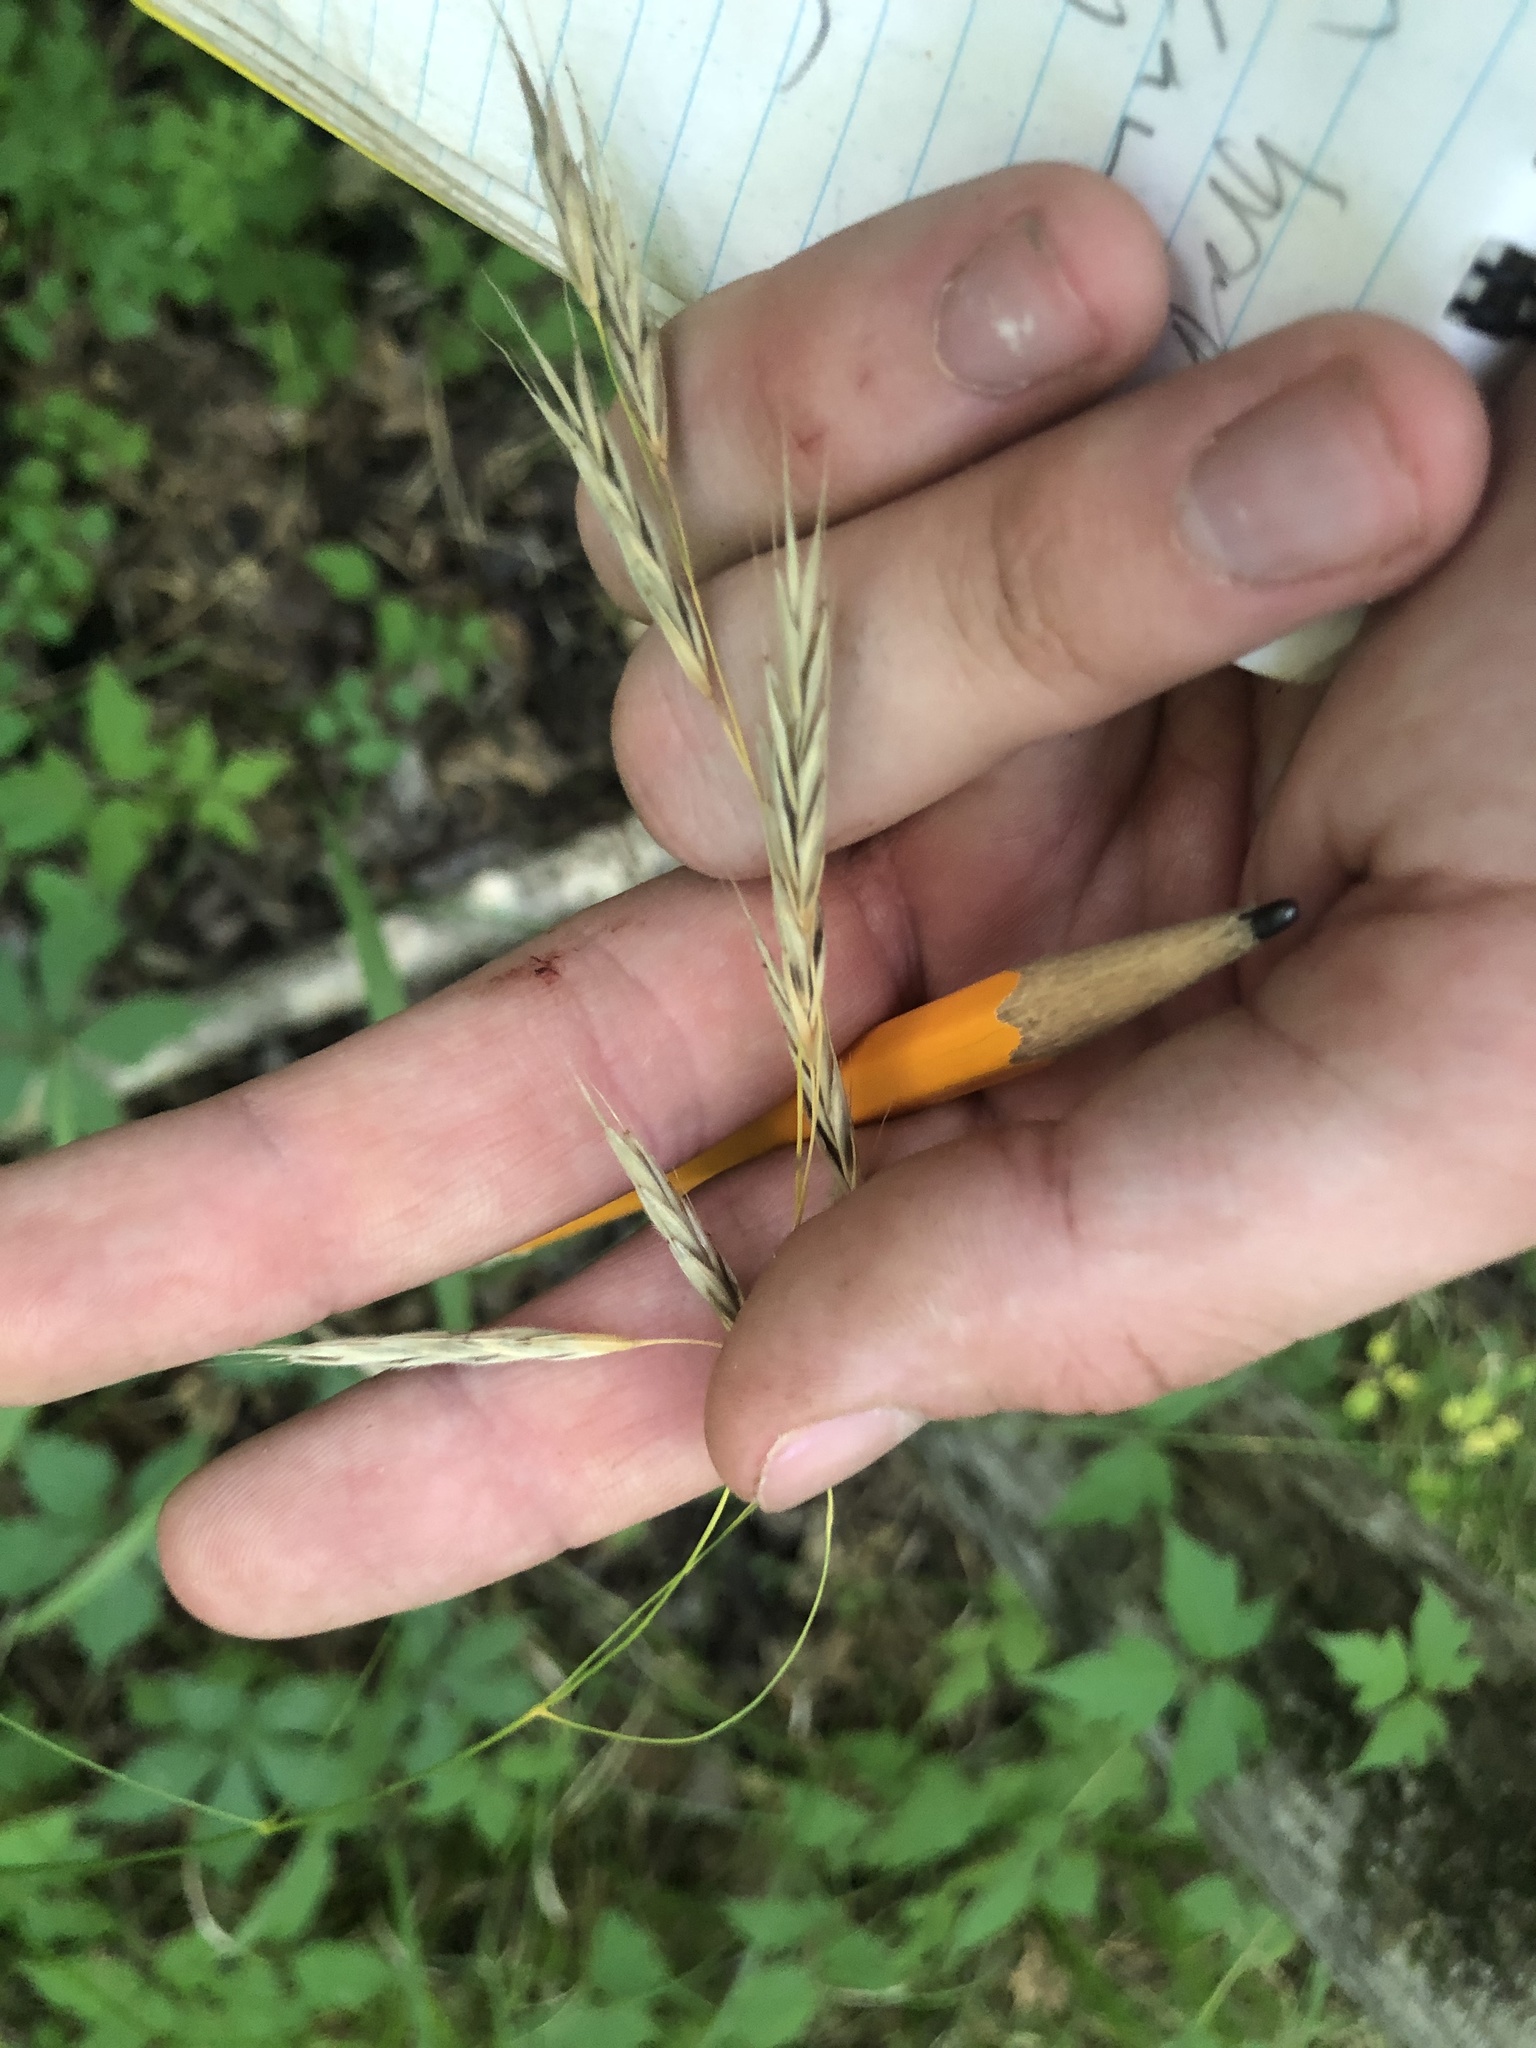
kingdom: Plantae
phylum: Tracheophyta
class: Liliopsida
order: Poales
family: Poaceae
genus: Bromus
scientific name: Bromus pubescens
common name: Hairy wood brome grass
